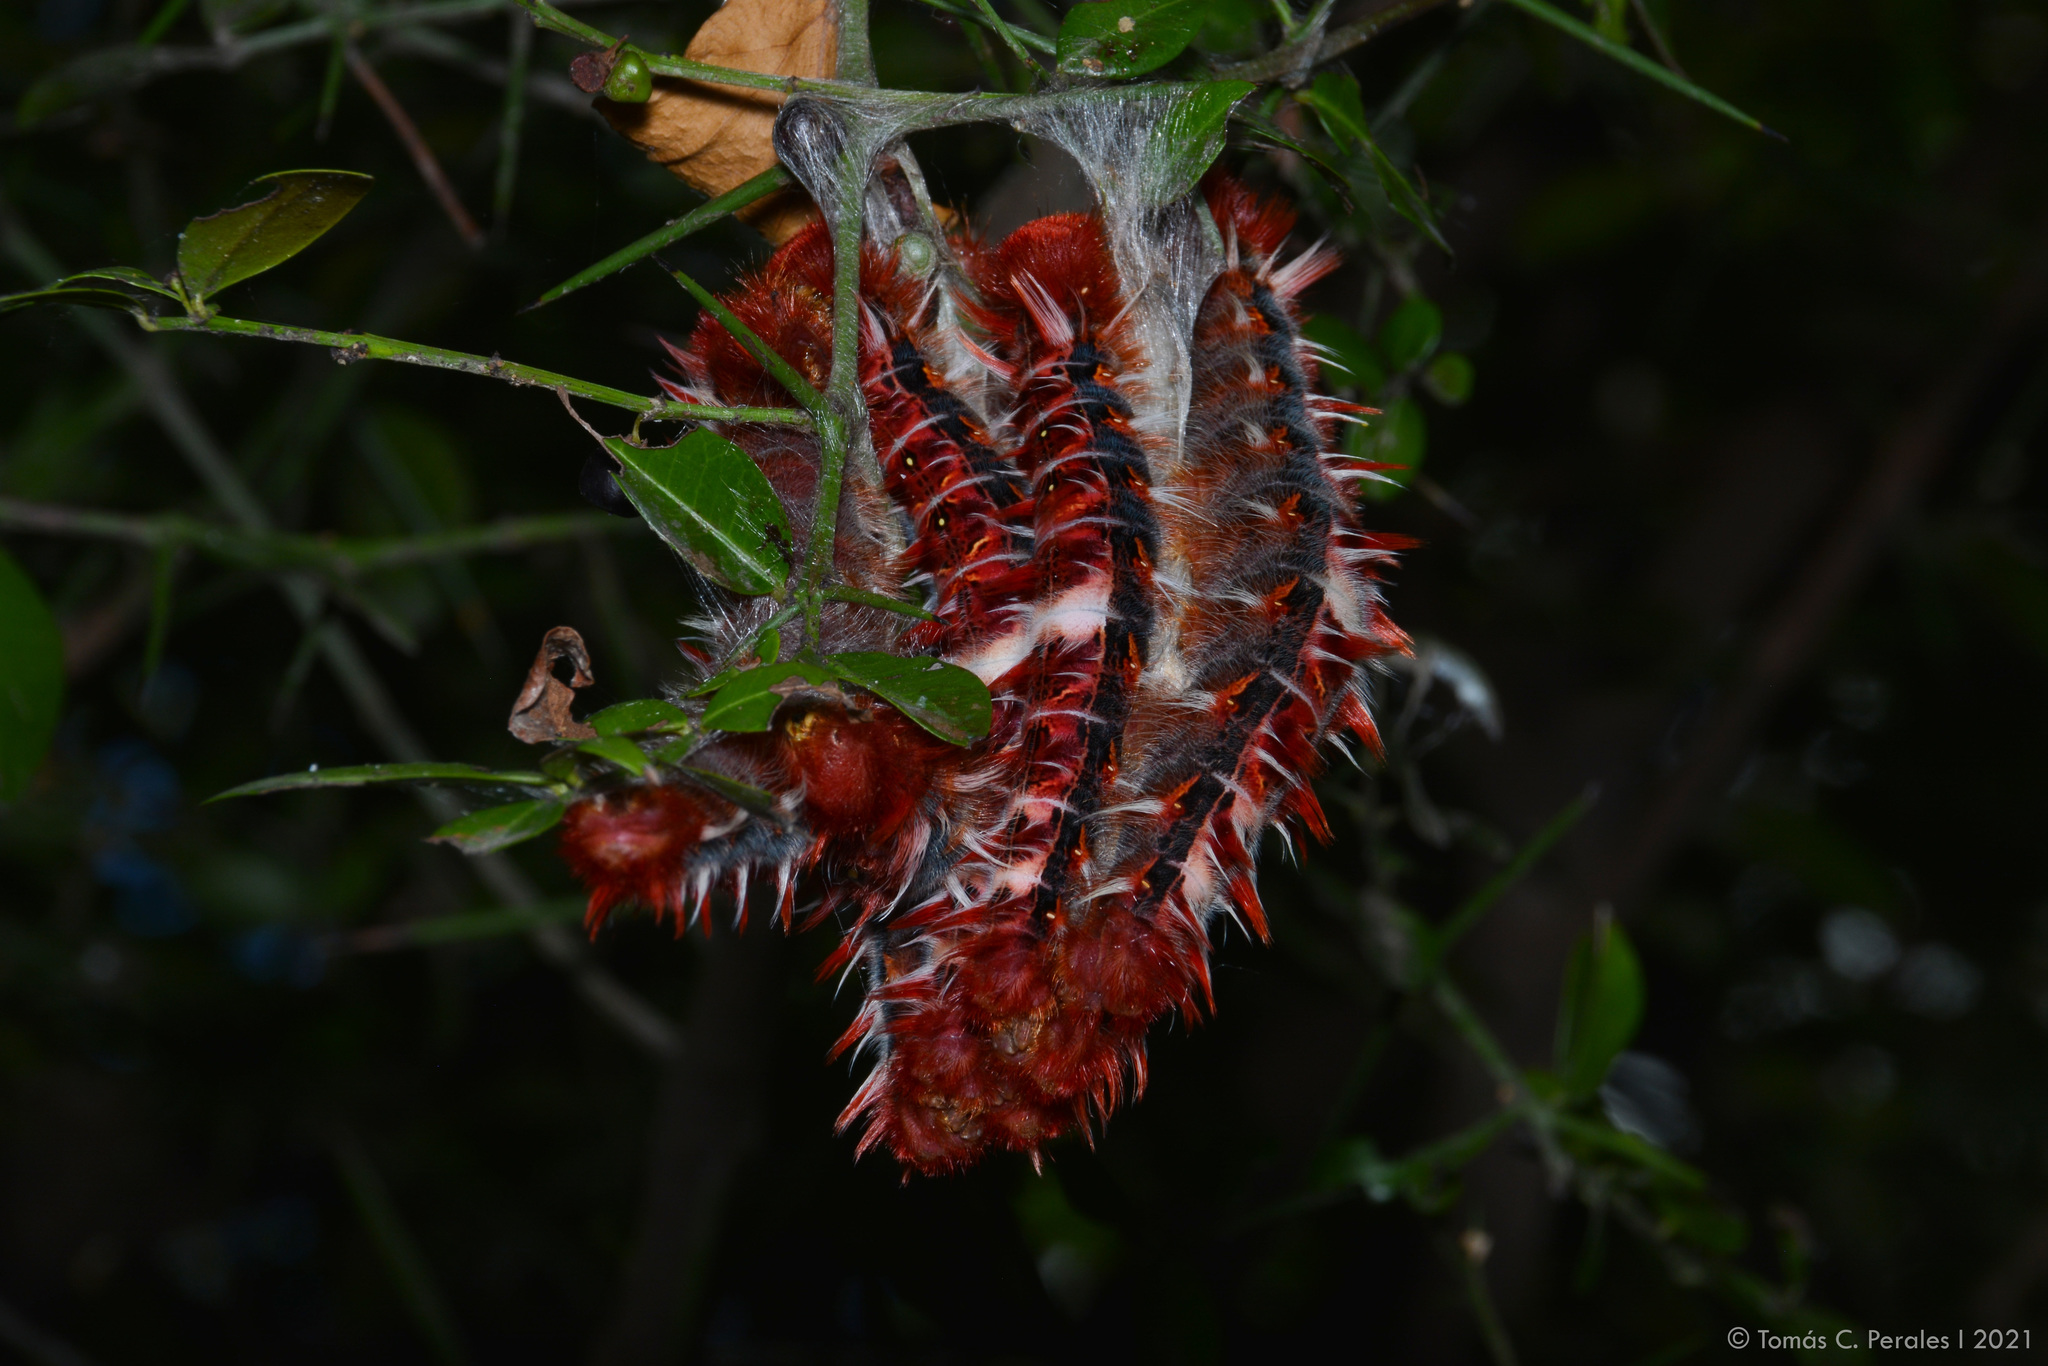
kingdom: Animalia
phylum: Arthropoda
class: Insecta
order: Lepidoptera
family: Nymphalidae
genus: Morpho
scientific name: Morpho epistrophus
